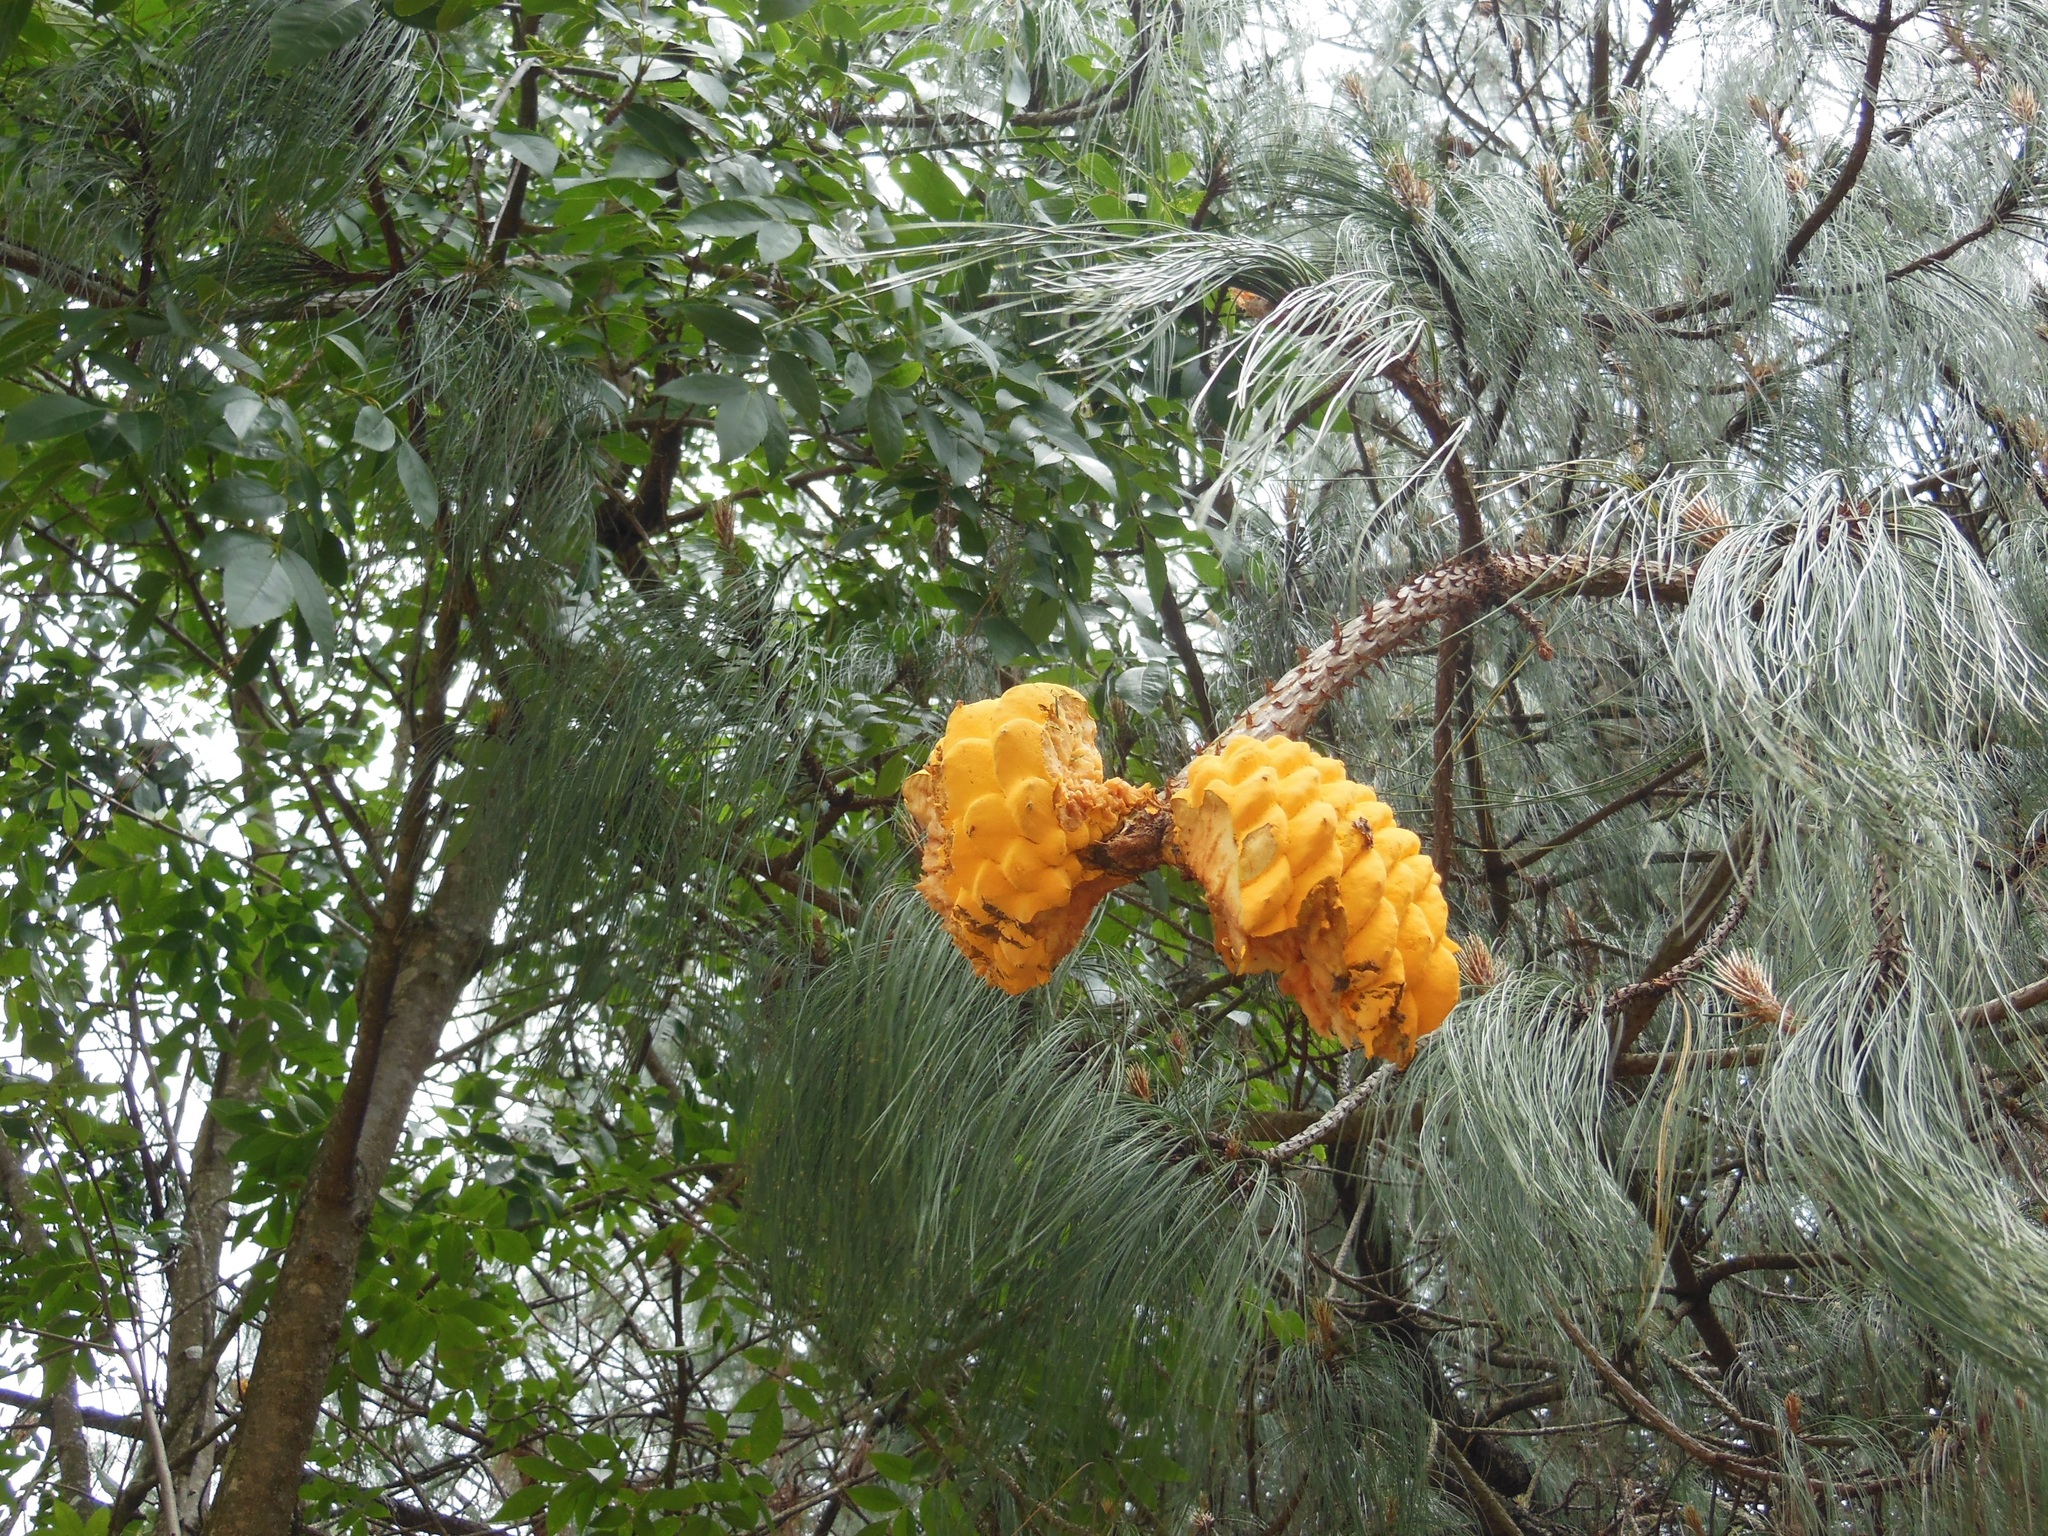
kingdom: Fungi
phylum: Basidiomycota
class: Pucciniomycetes
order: Pucciniales
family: Cronartiaceae
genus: Cronartium
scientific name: Cronartium conigenum
